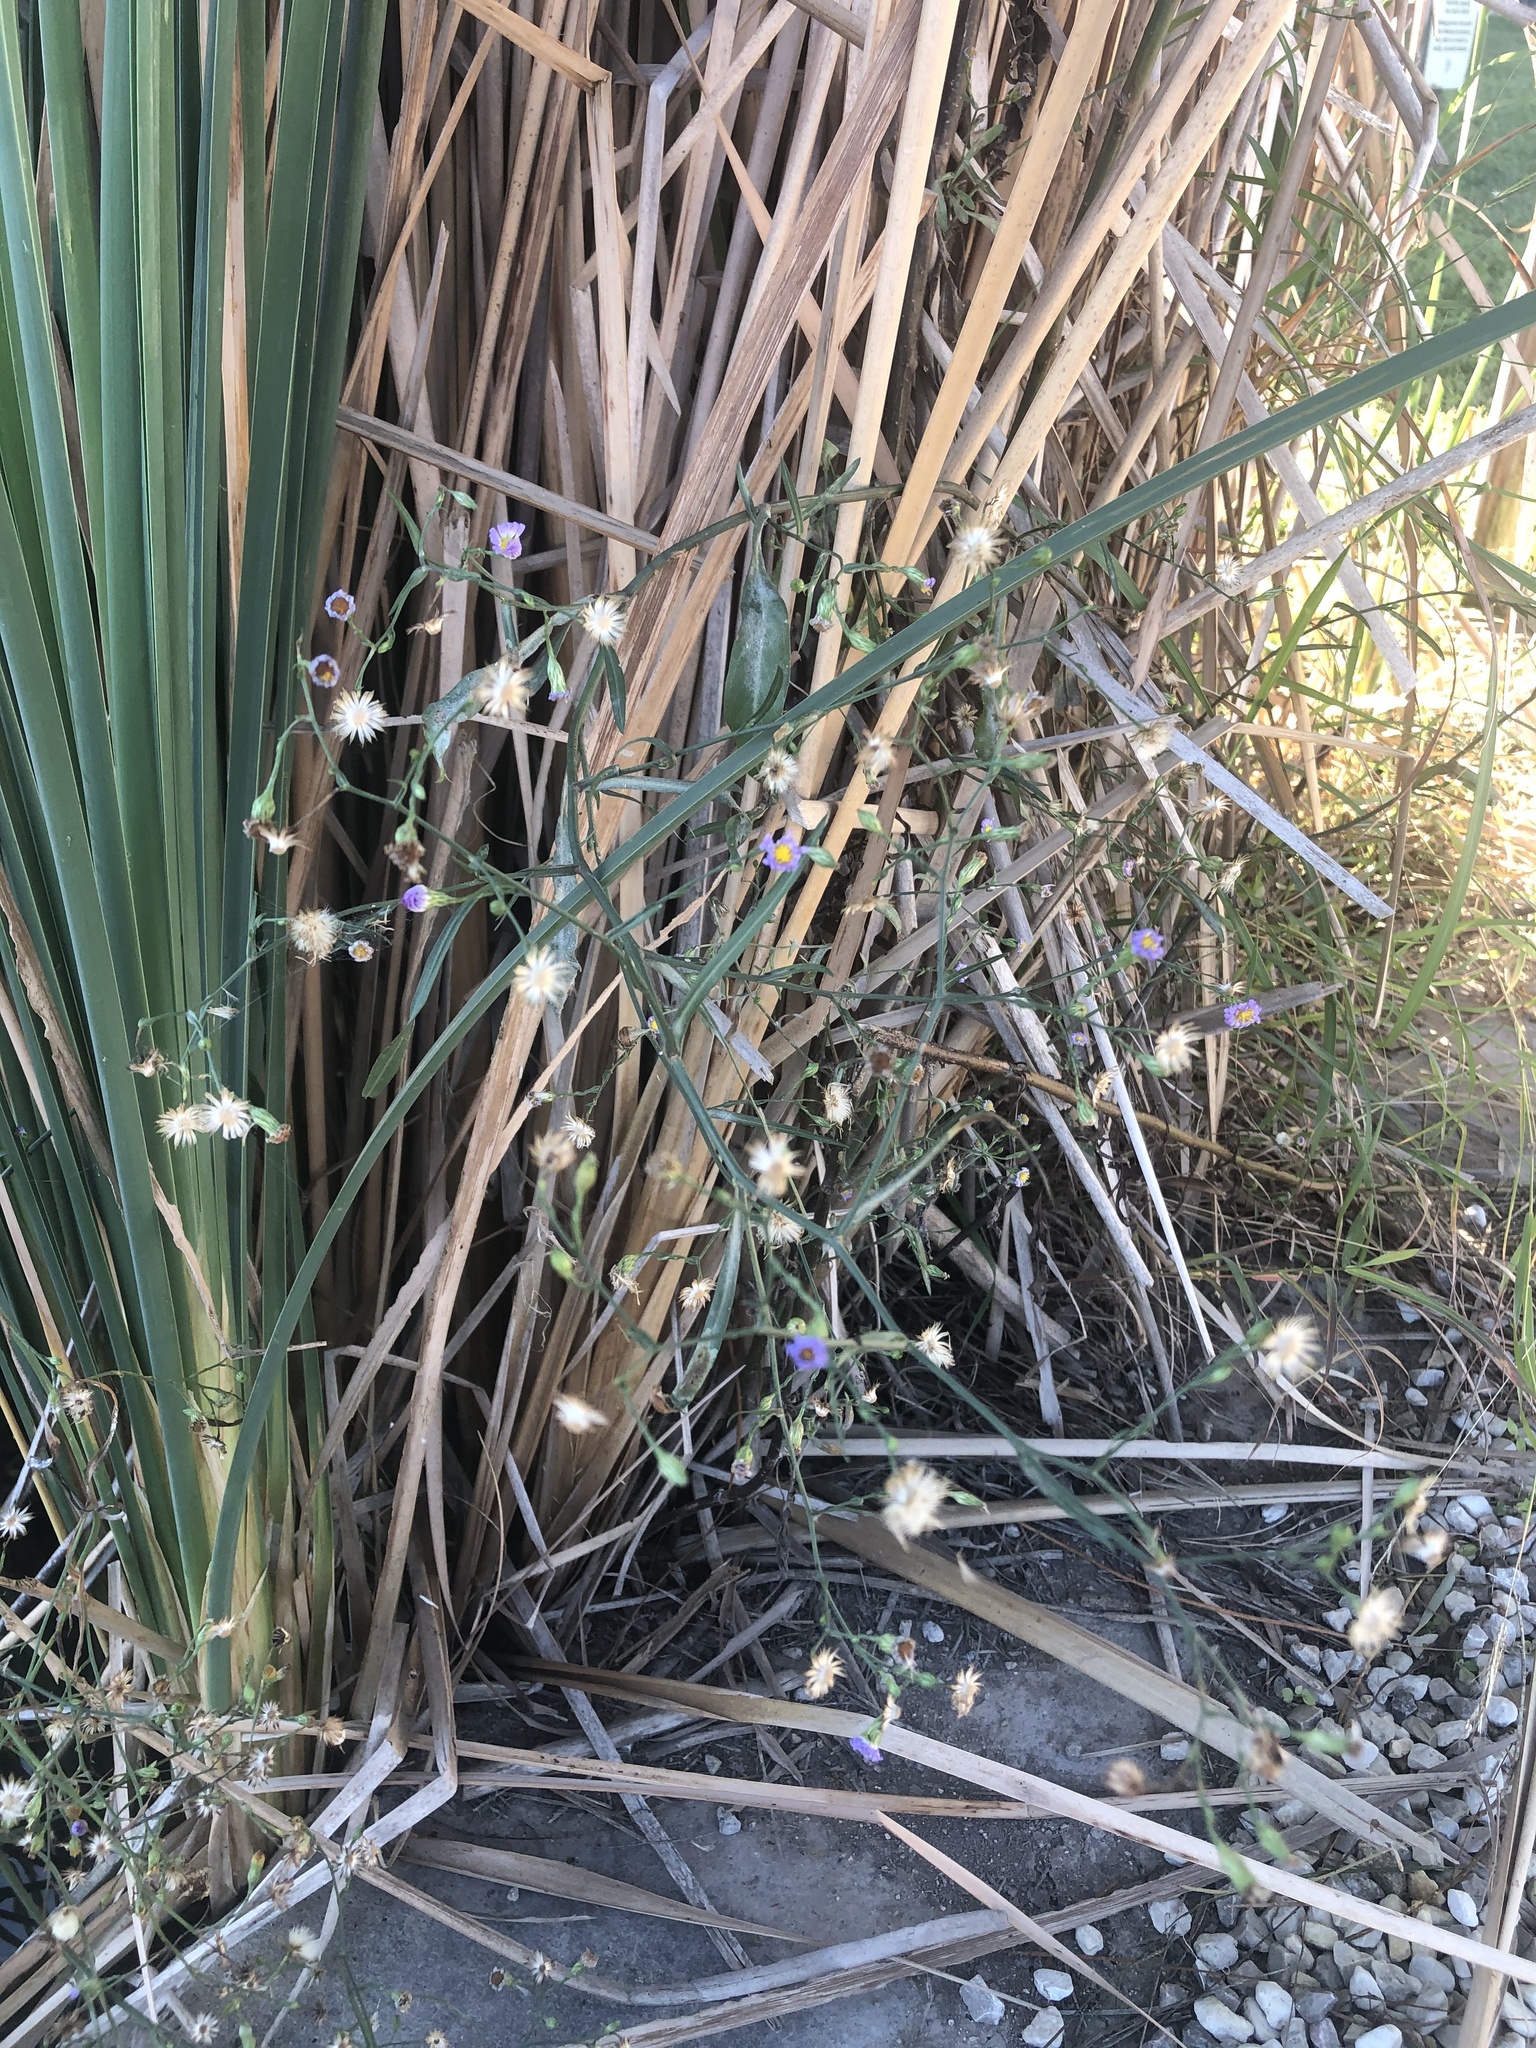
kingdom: Plantae
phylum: Tracheophyta
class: Magnoliopsida
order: Asterales
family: Asteraceae
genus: Symphyotrichum
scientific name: Symphyotrichum divaricatum
